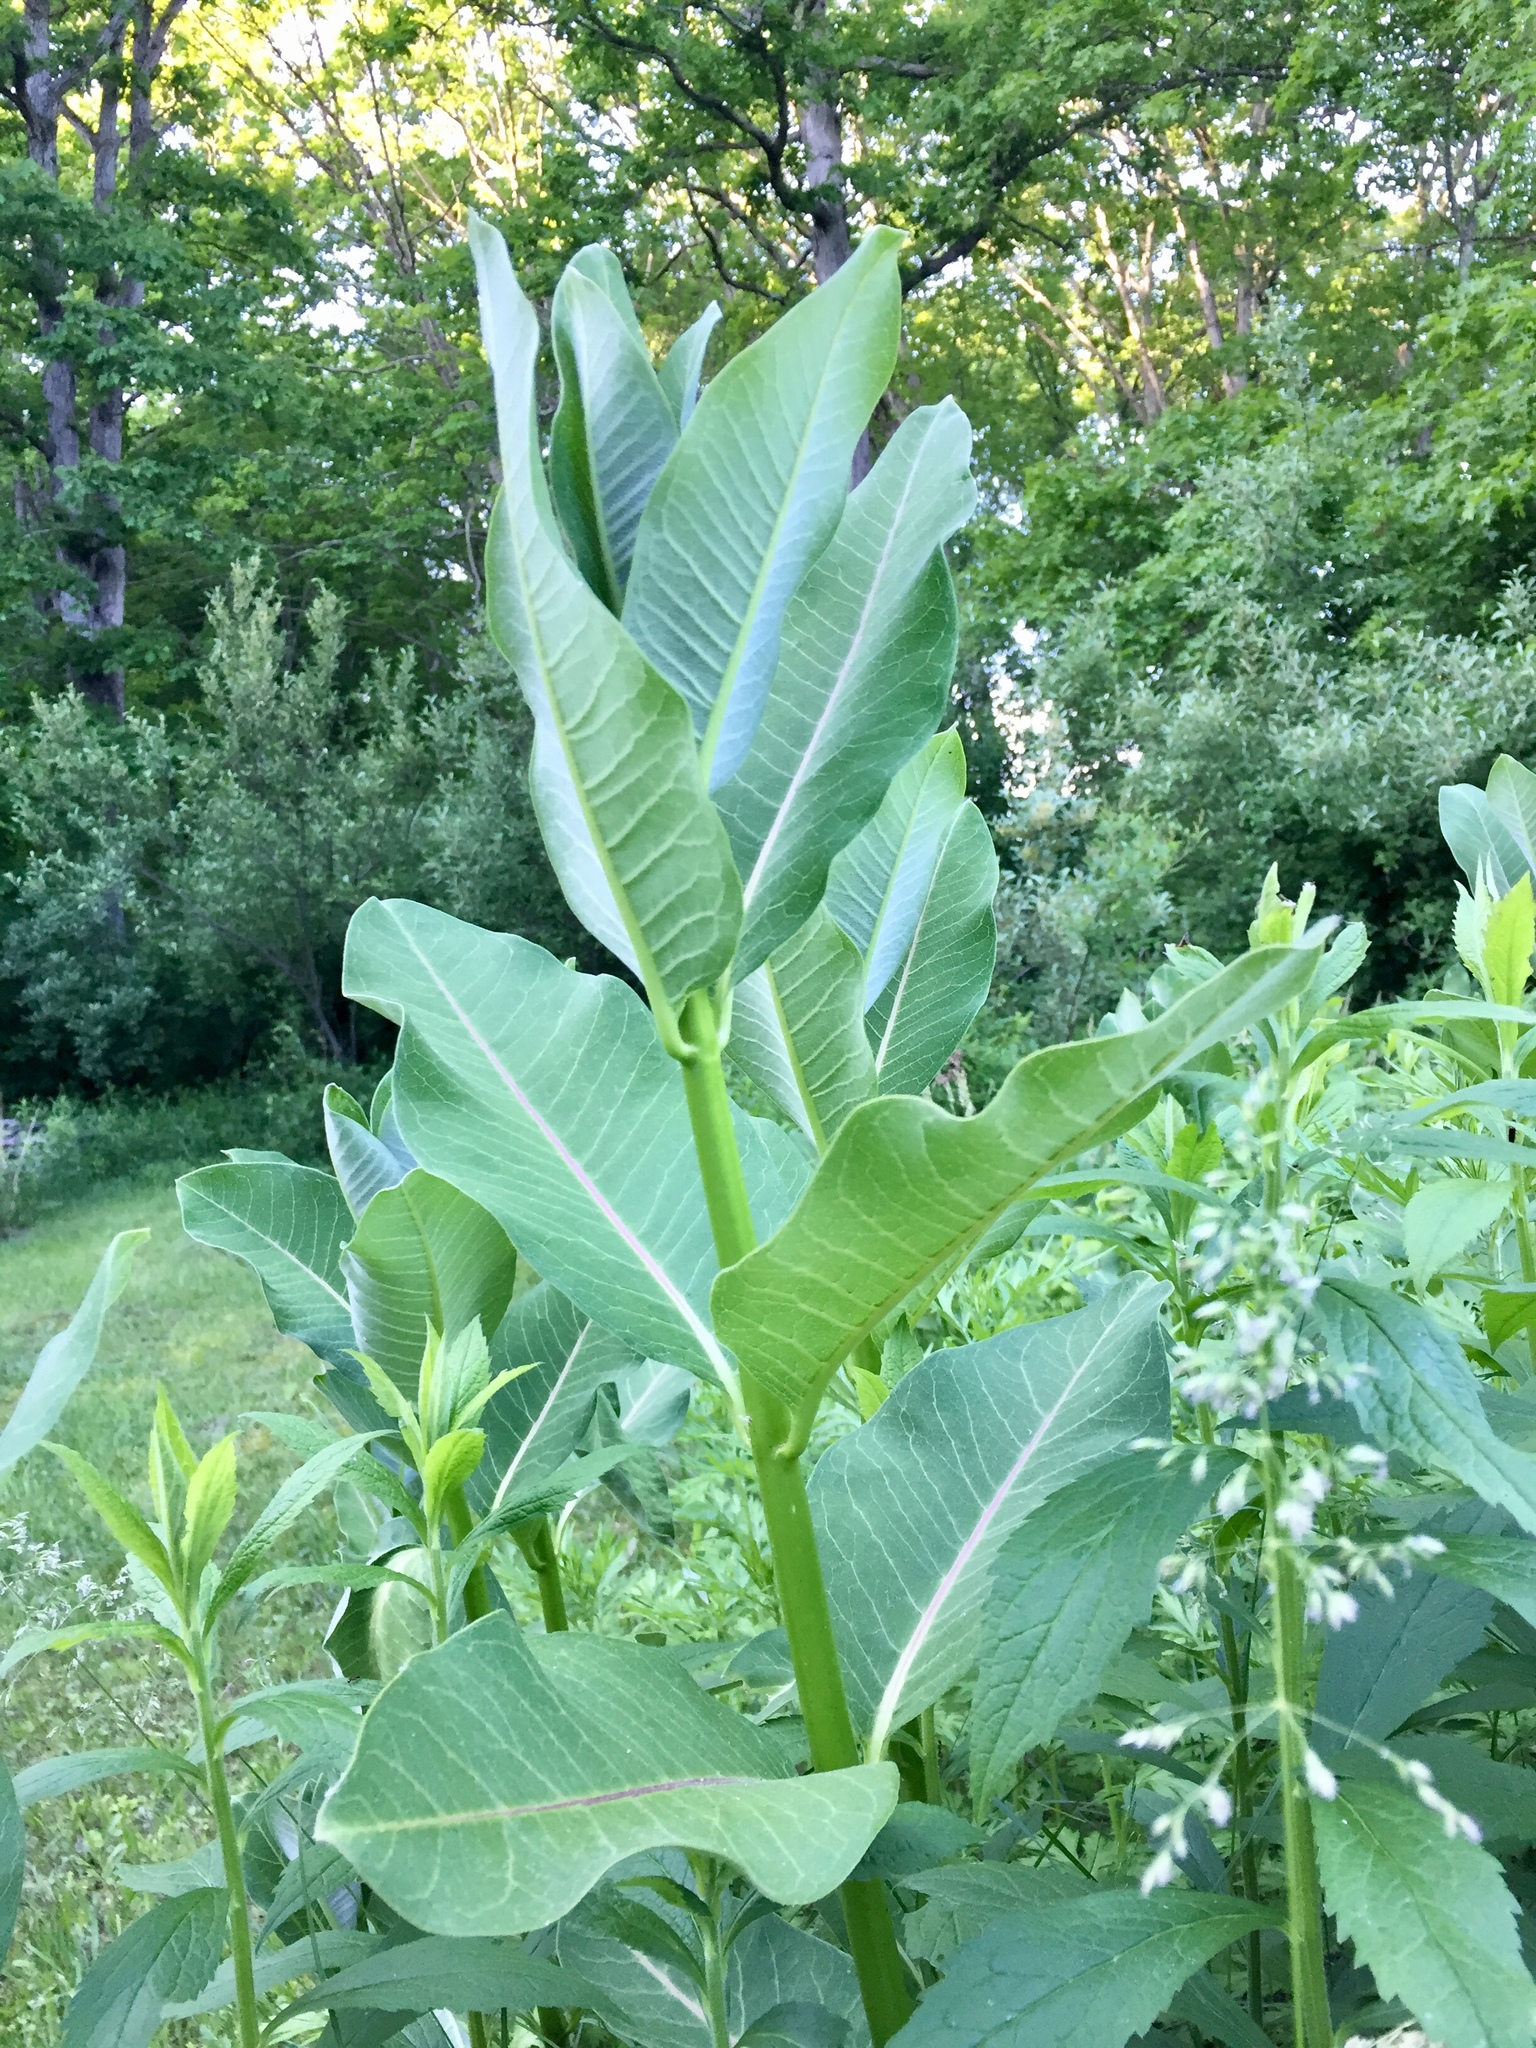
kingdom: Plantae
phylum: Tracheophyta
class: Magnoliopsida
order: Gentianales
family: Apocynaceae
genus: Asclepias
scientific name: Asclepias syriaca
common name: Common milkweed
